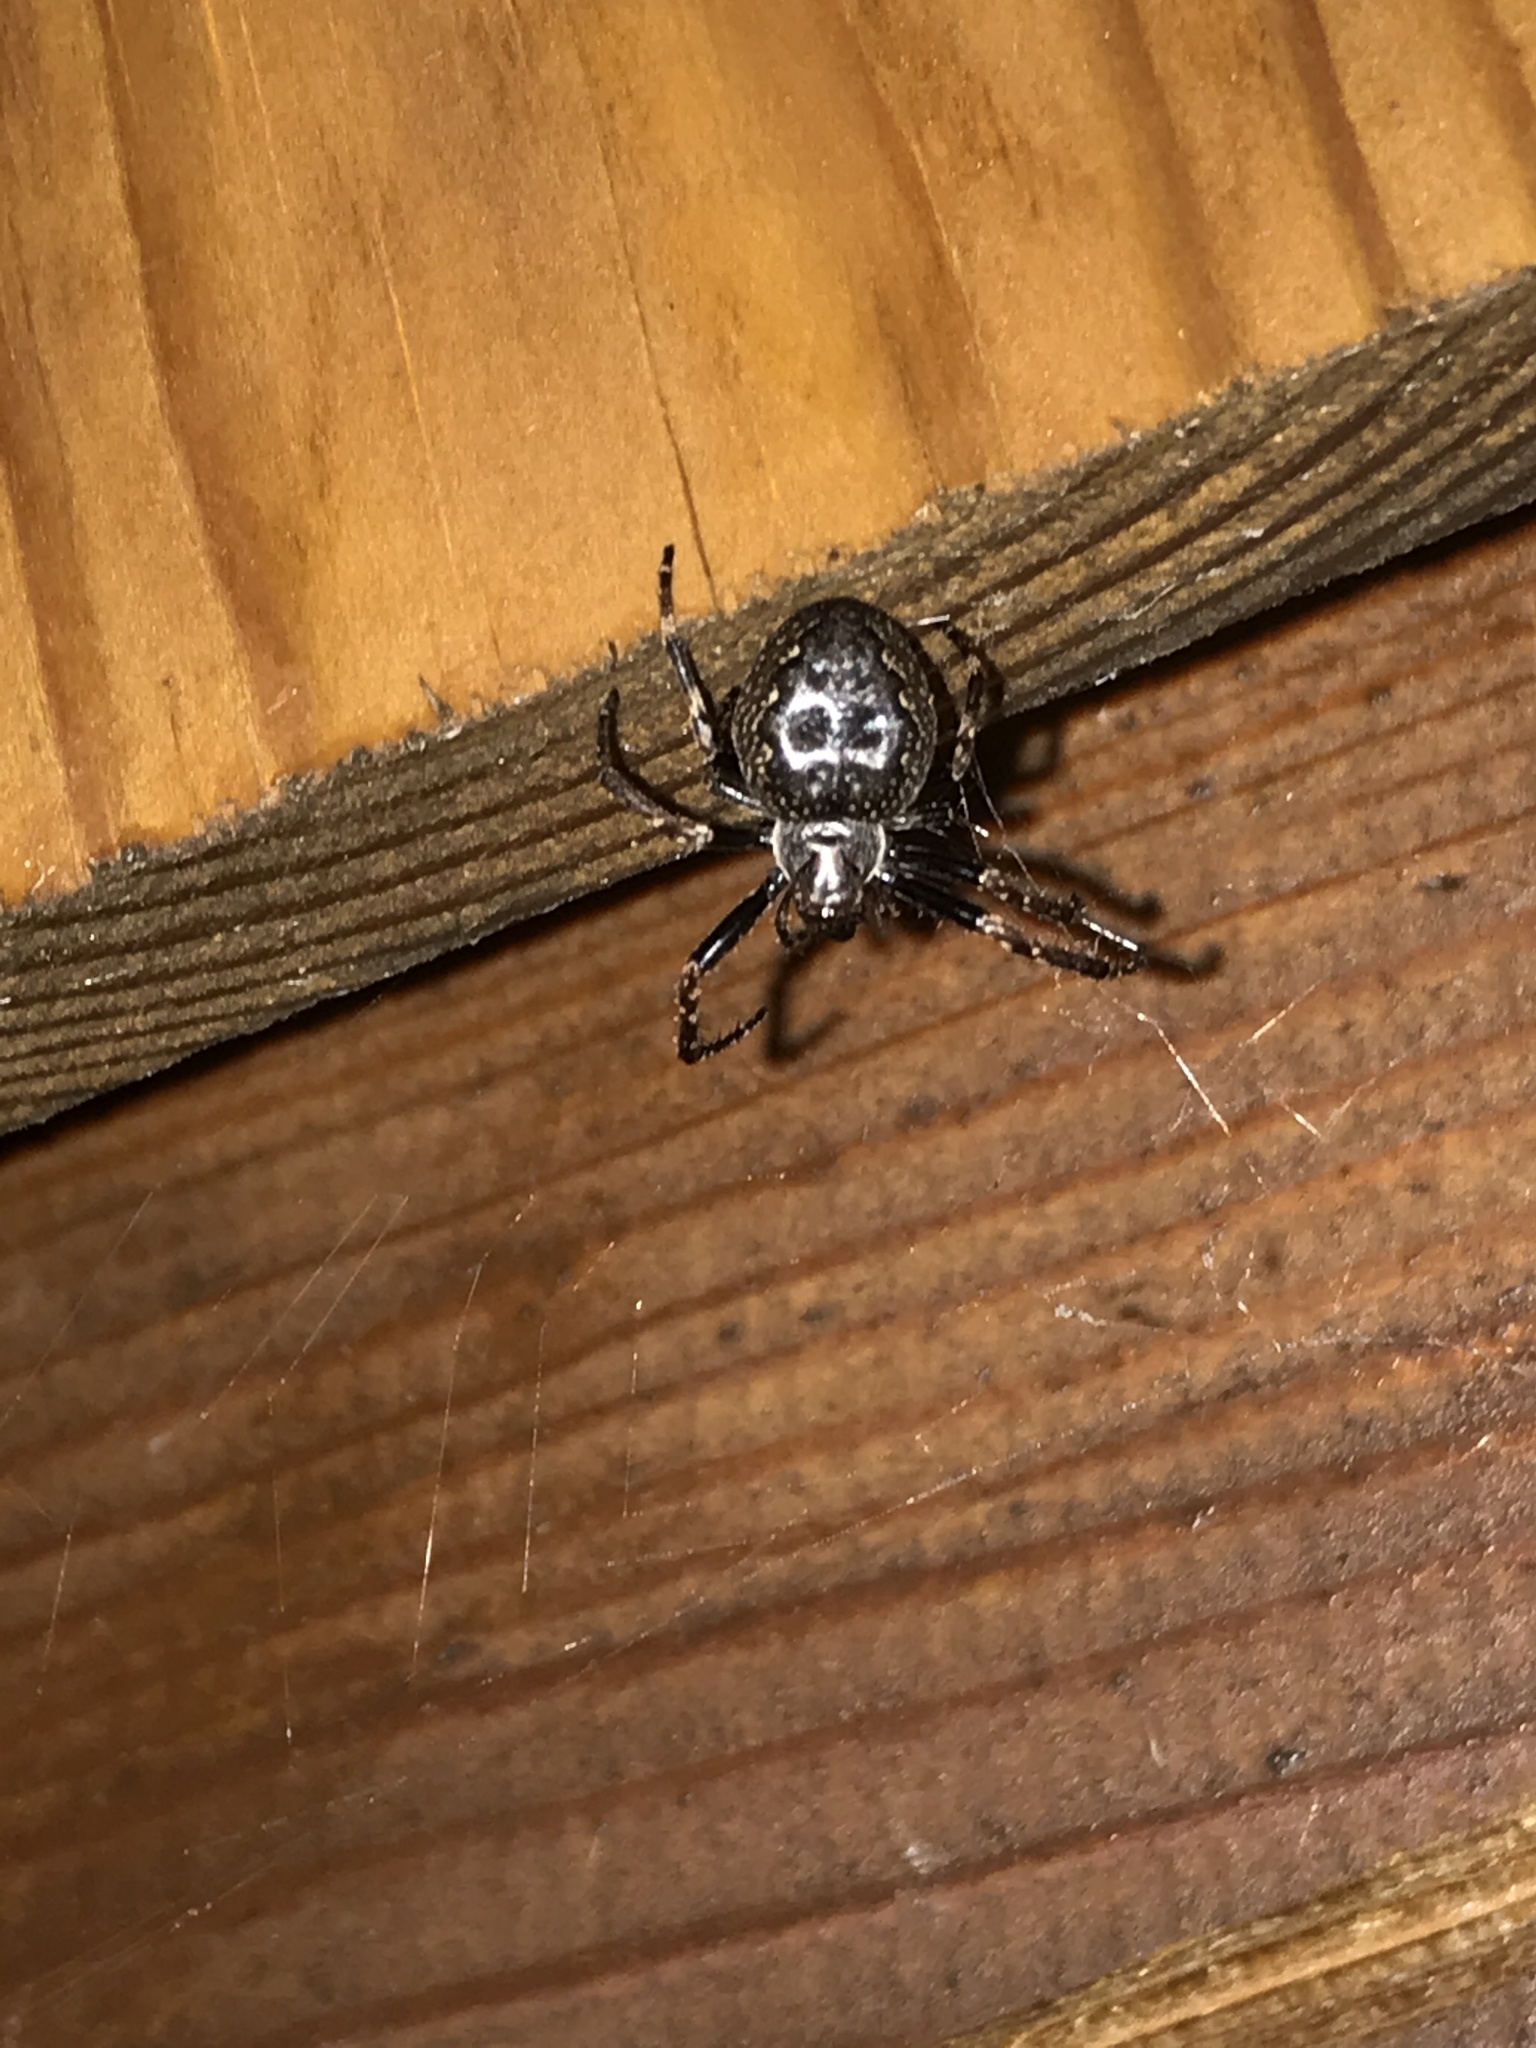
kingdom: Animalia
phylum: Arthropoda
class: Arachnida
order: Araneae
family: Araneidae
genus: Nuctenea
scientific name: Nuctenea umbratica
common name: Toad spider
